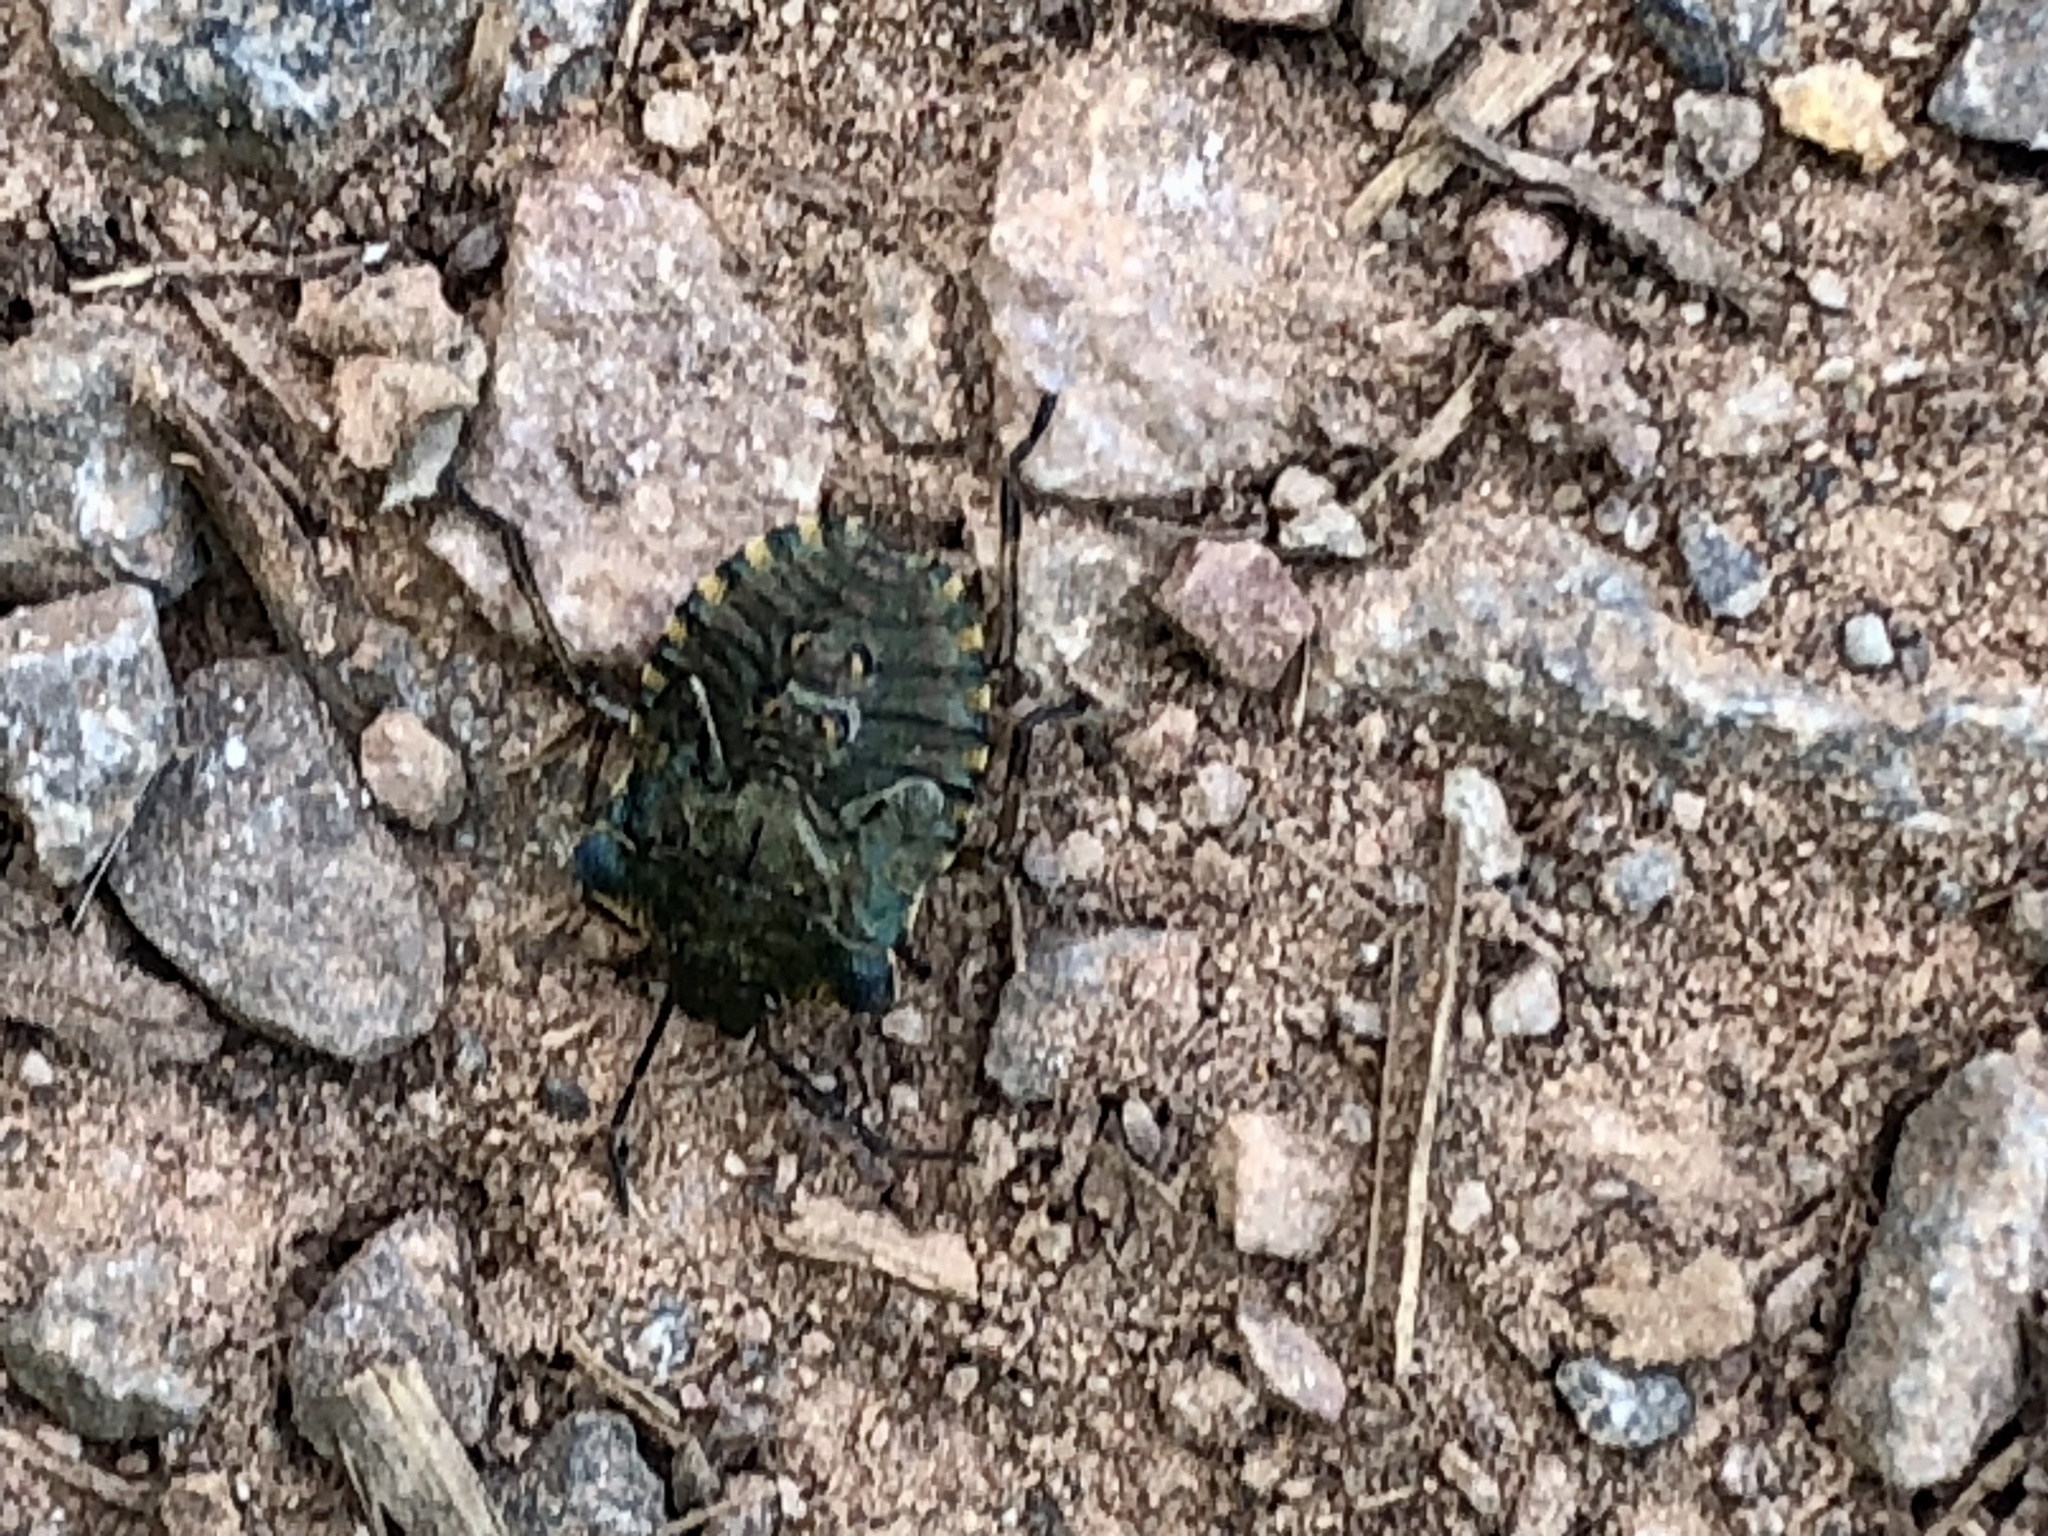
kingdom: Animalia
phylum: Arthropoda
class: Insecta
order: Hemiptera
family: Pentatomidae
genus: Pentatoma
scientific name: Pentatoma rufipes
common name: Forest bug
